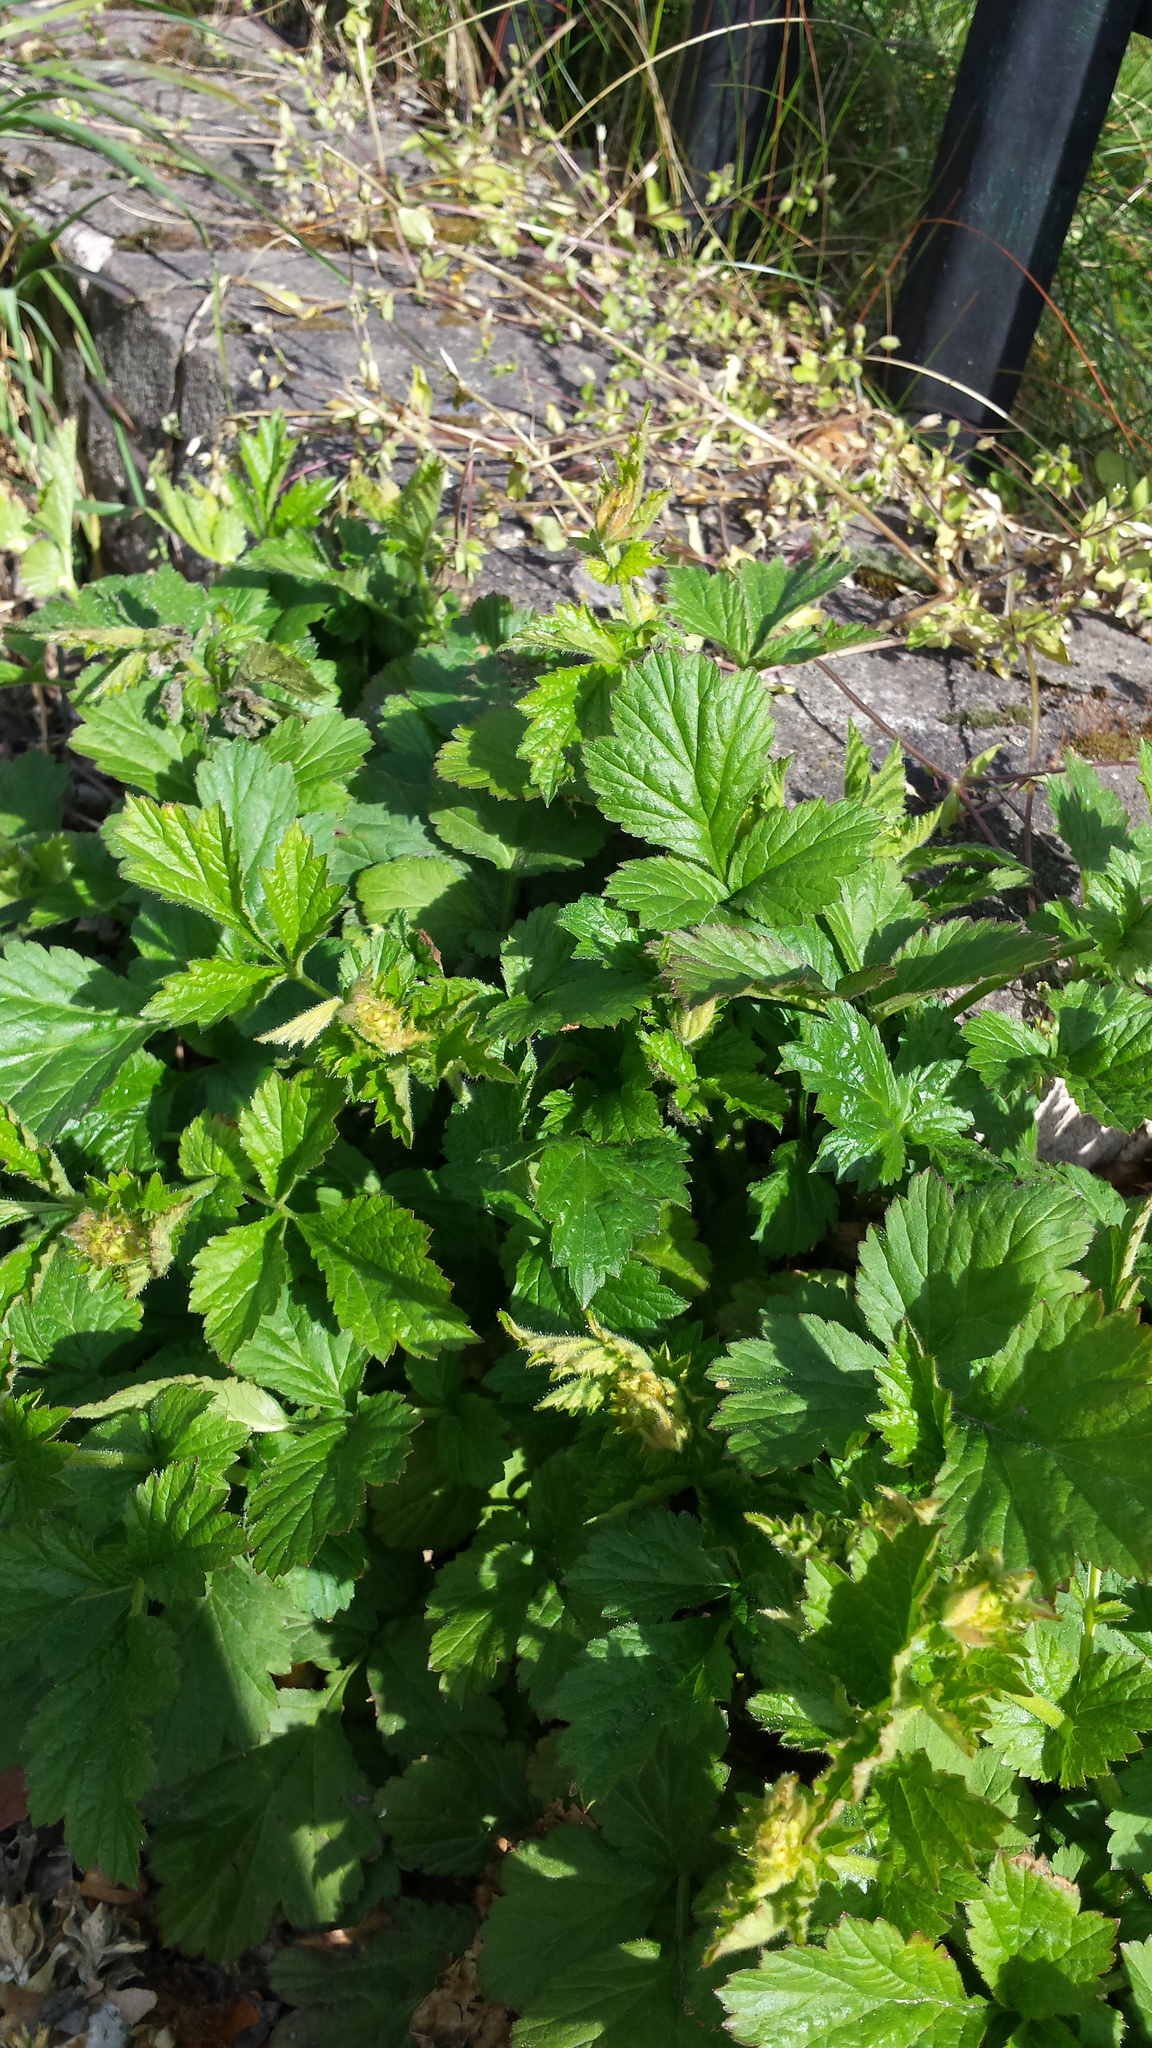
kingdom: Plantae
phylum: Tracheophyta
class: Magnoliopsida
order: Rosales
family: Rosaceae
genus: Geum
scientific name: Geum urbanum
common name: Wood avens
